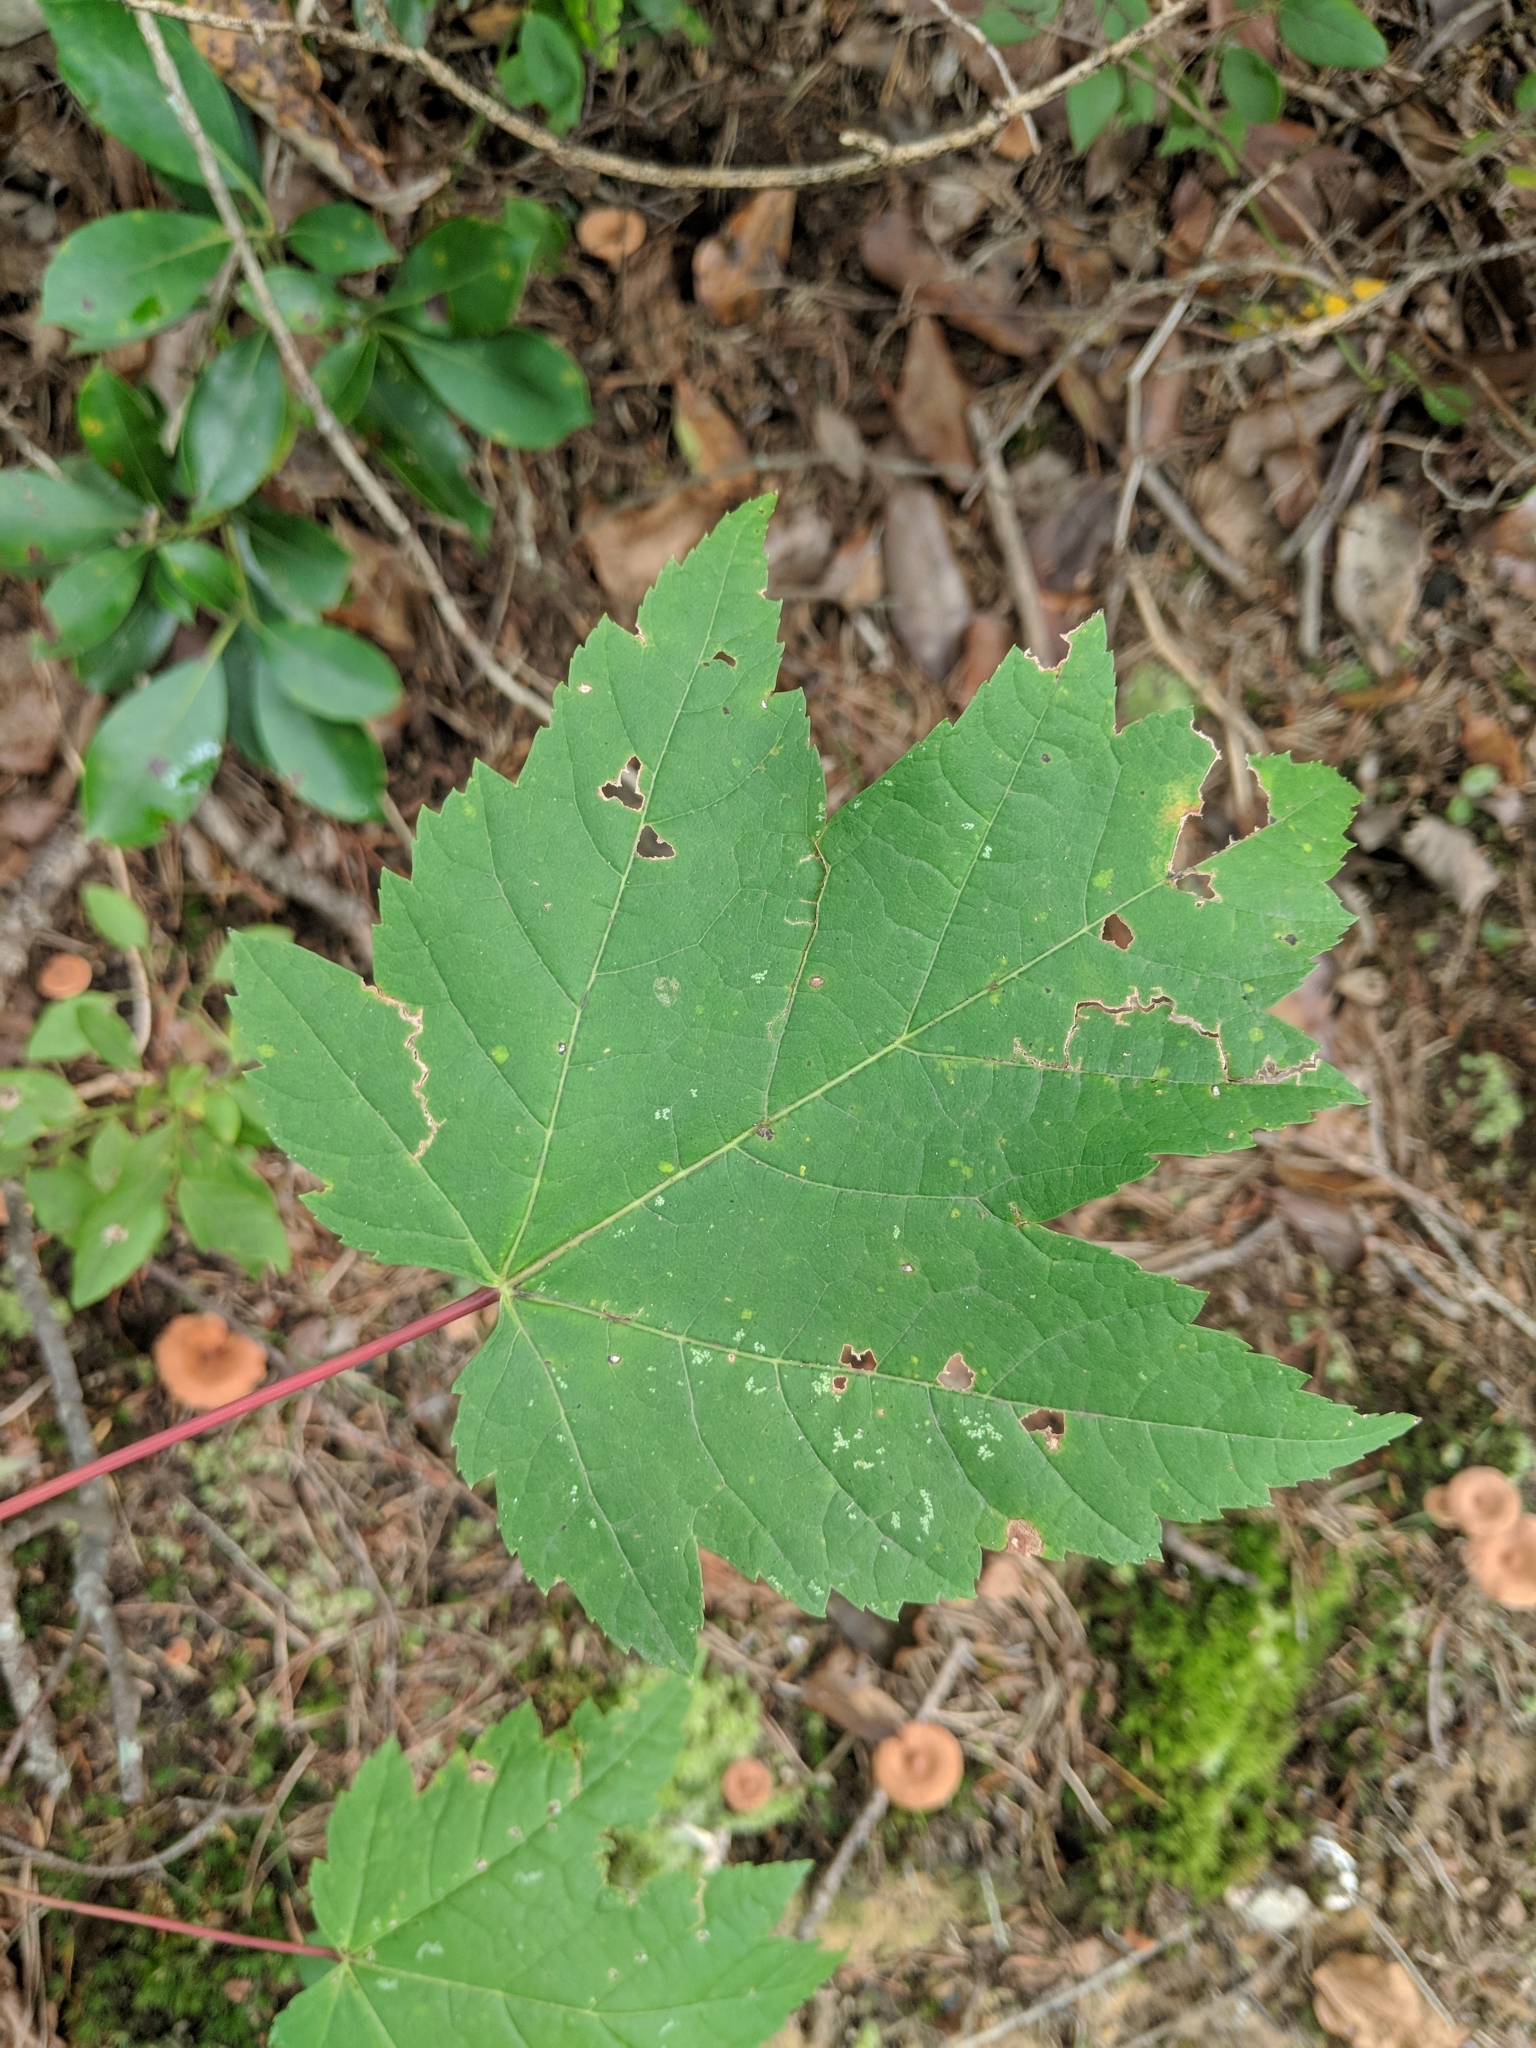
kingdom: Plantae
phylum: Tracheophyta
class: Magnoliopsida
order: Sapindales
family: Sapindaceae
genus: Acer
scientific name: Acer rubrum
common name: Red maple
